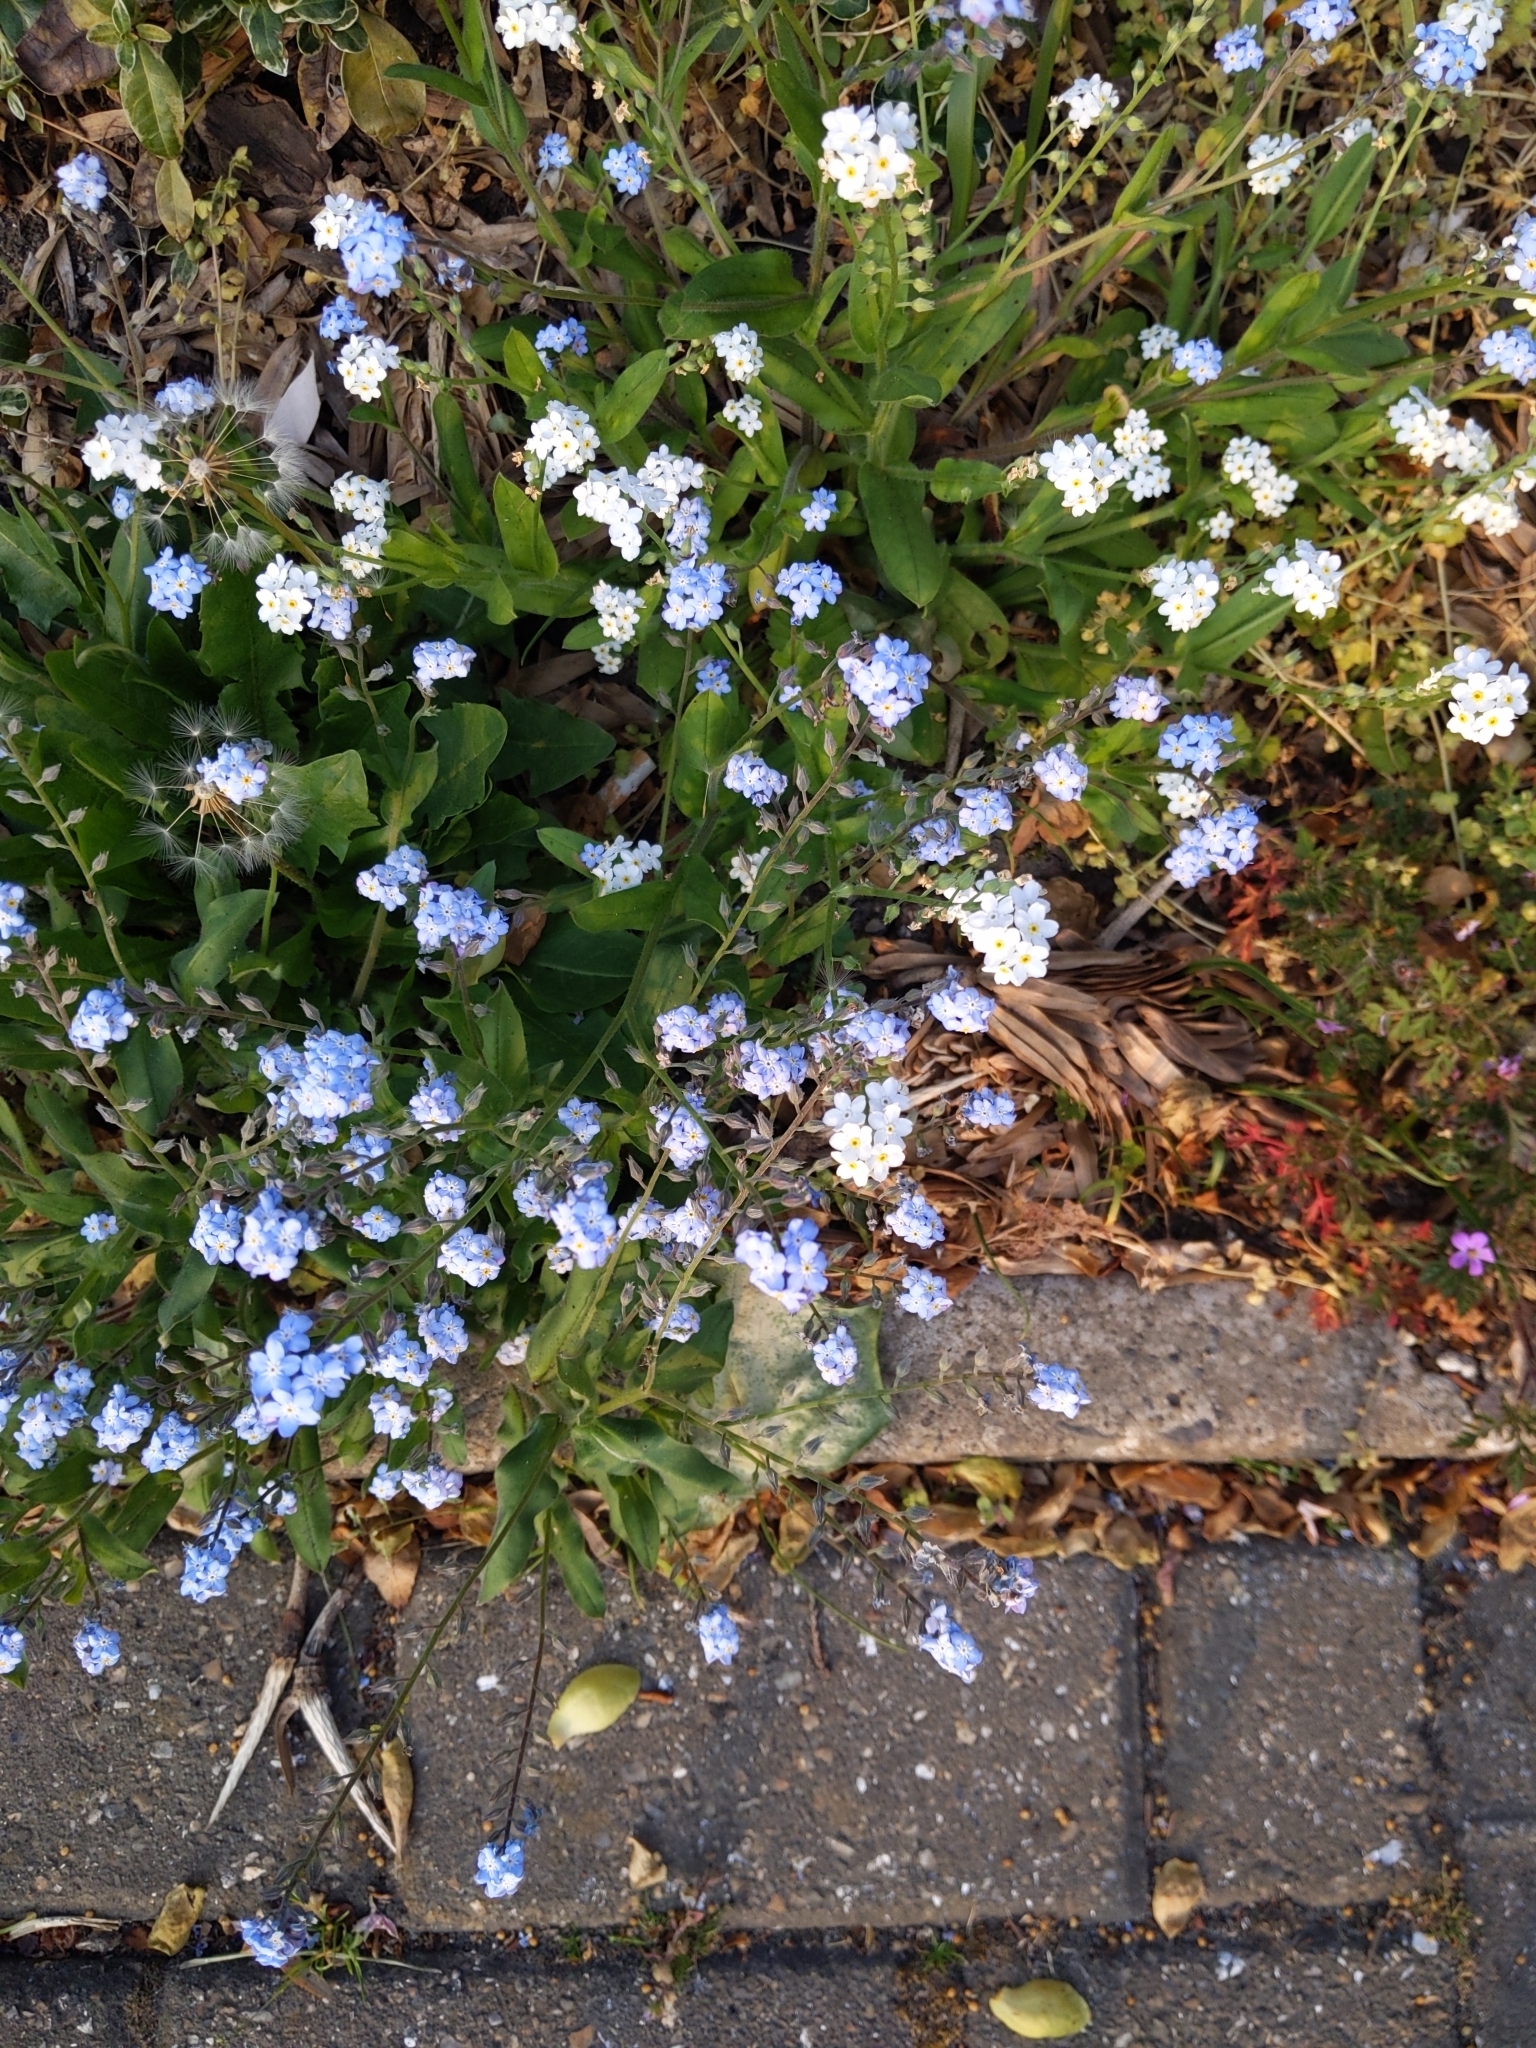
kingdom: Plantae
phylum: Tracheophyta
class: Magnoliopsida
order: Boraginales
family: Boraginaceae
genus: Myosotis
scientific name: Myosotis sylvatica
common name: Wood forget-me-not
